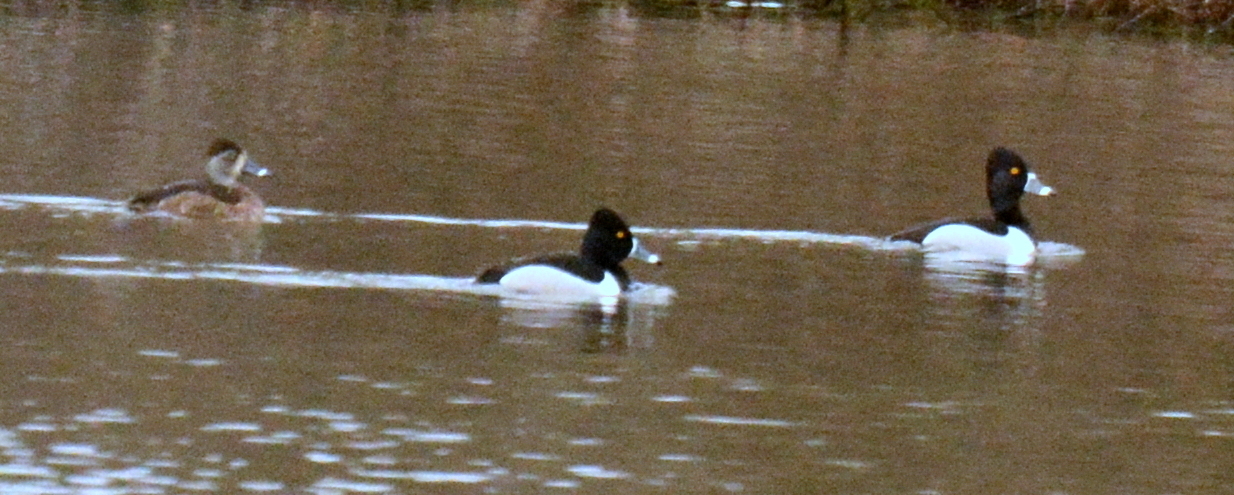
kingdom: Animalia
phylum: Chordata
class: Aves
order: Anseriformes
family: Anatidae
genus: Aythya
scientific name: Aythya collaris
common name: Ring-necked duck
